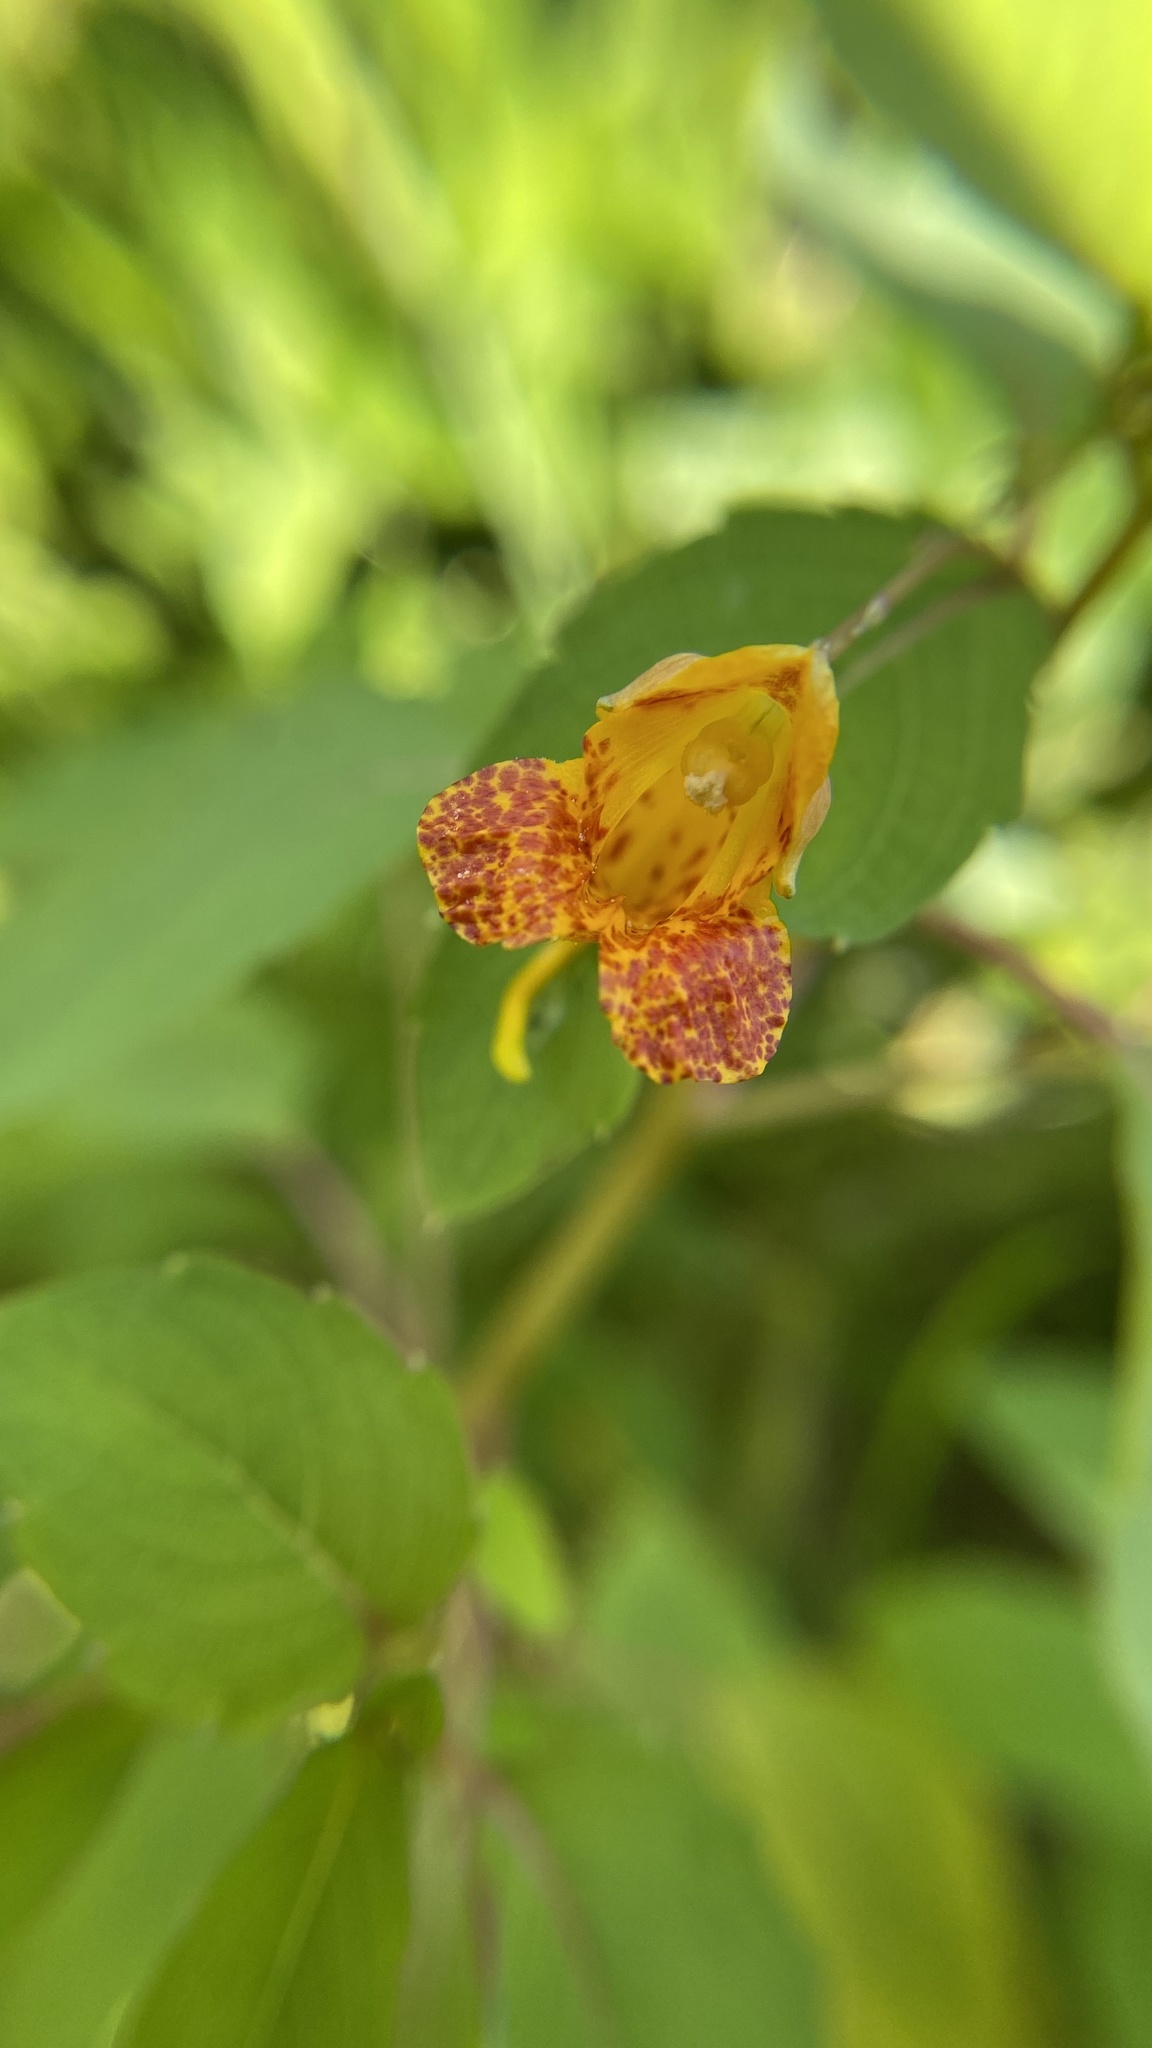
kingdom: Plantae
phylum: Tracheophyta
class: Magnoliopsida
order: Ericales
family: Balsaminaceae
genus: Impatiens
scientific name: Impatiens capensis
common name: Orange balsam
